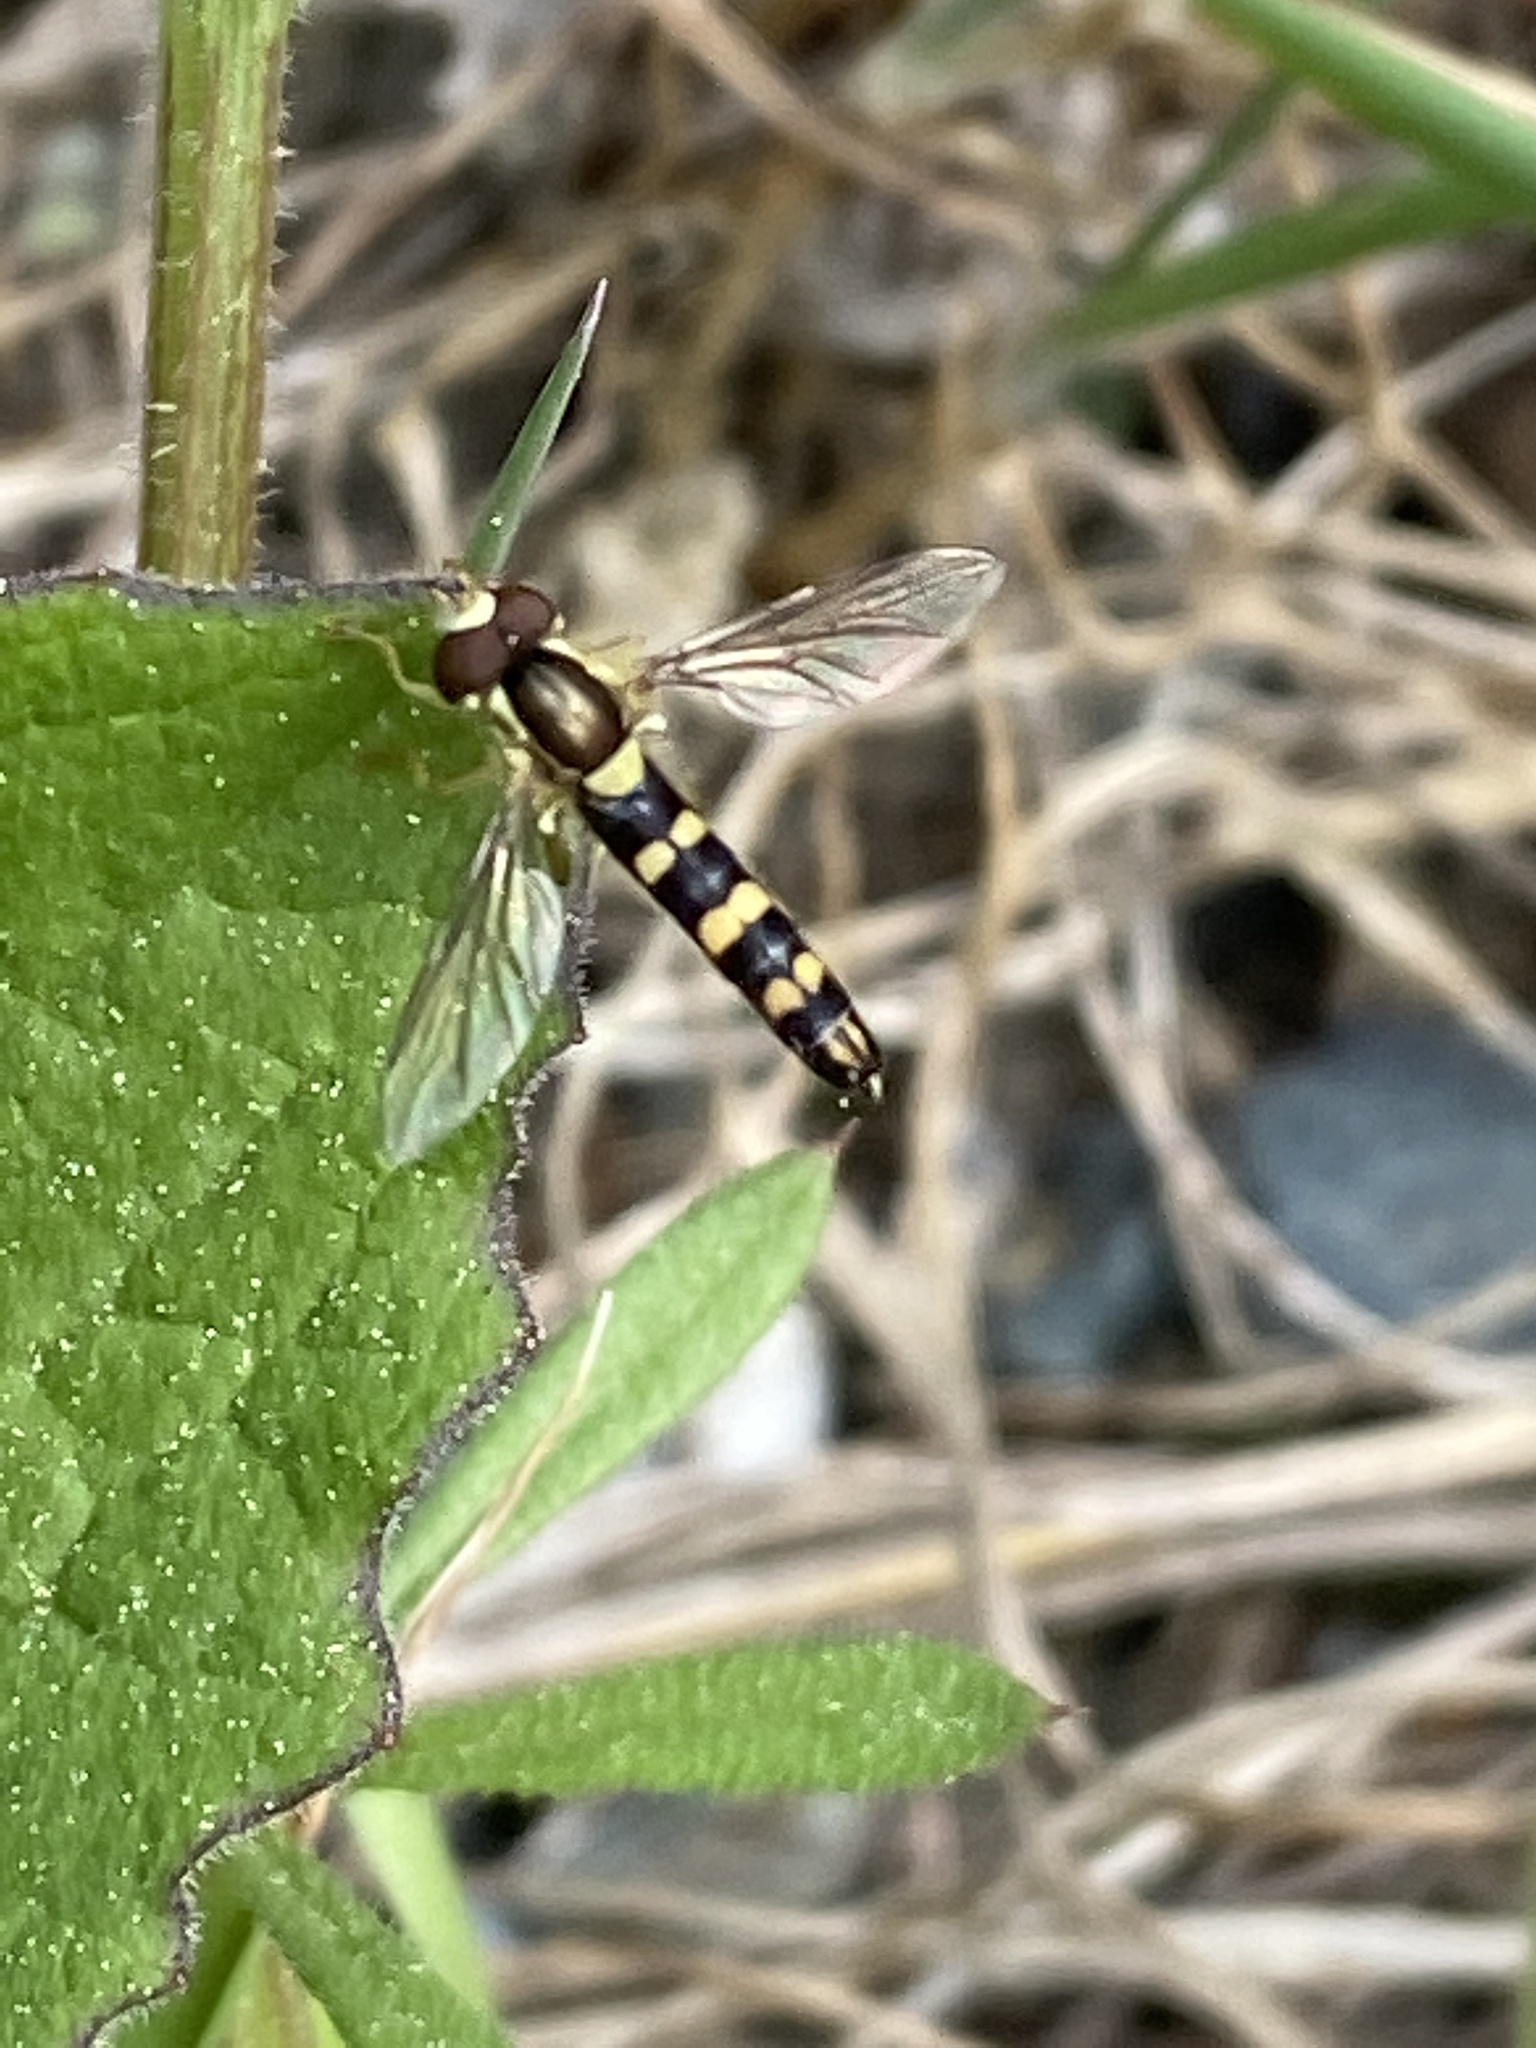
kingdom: Animalia
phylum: Arthropoda
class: Insecta
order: Diptera
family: Syrphidae
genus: Sphaerophoria
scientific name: Sphaerophoria
